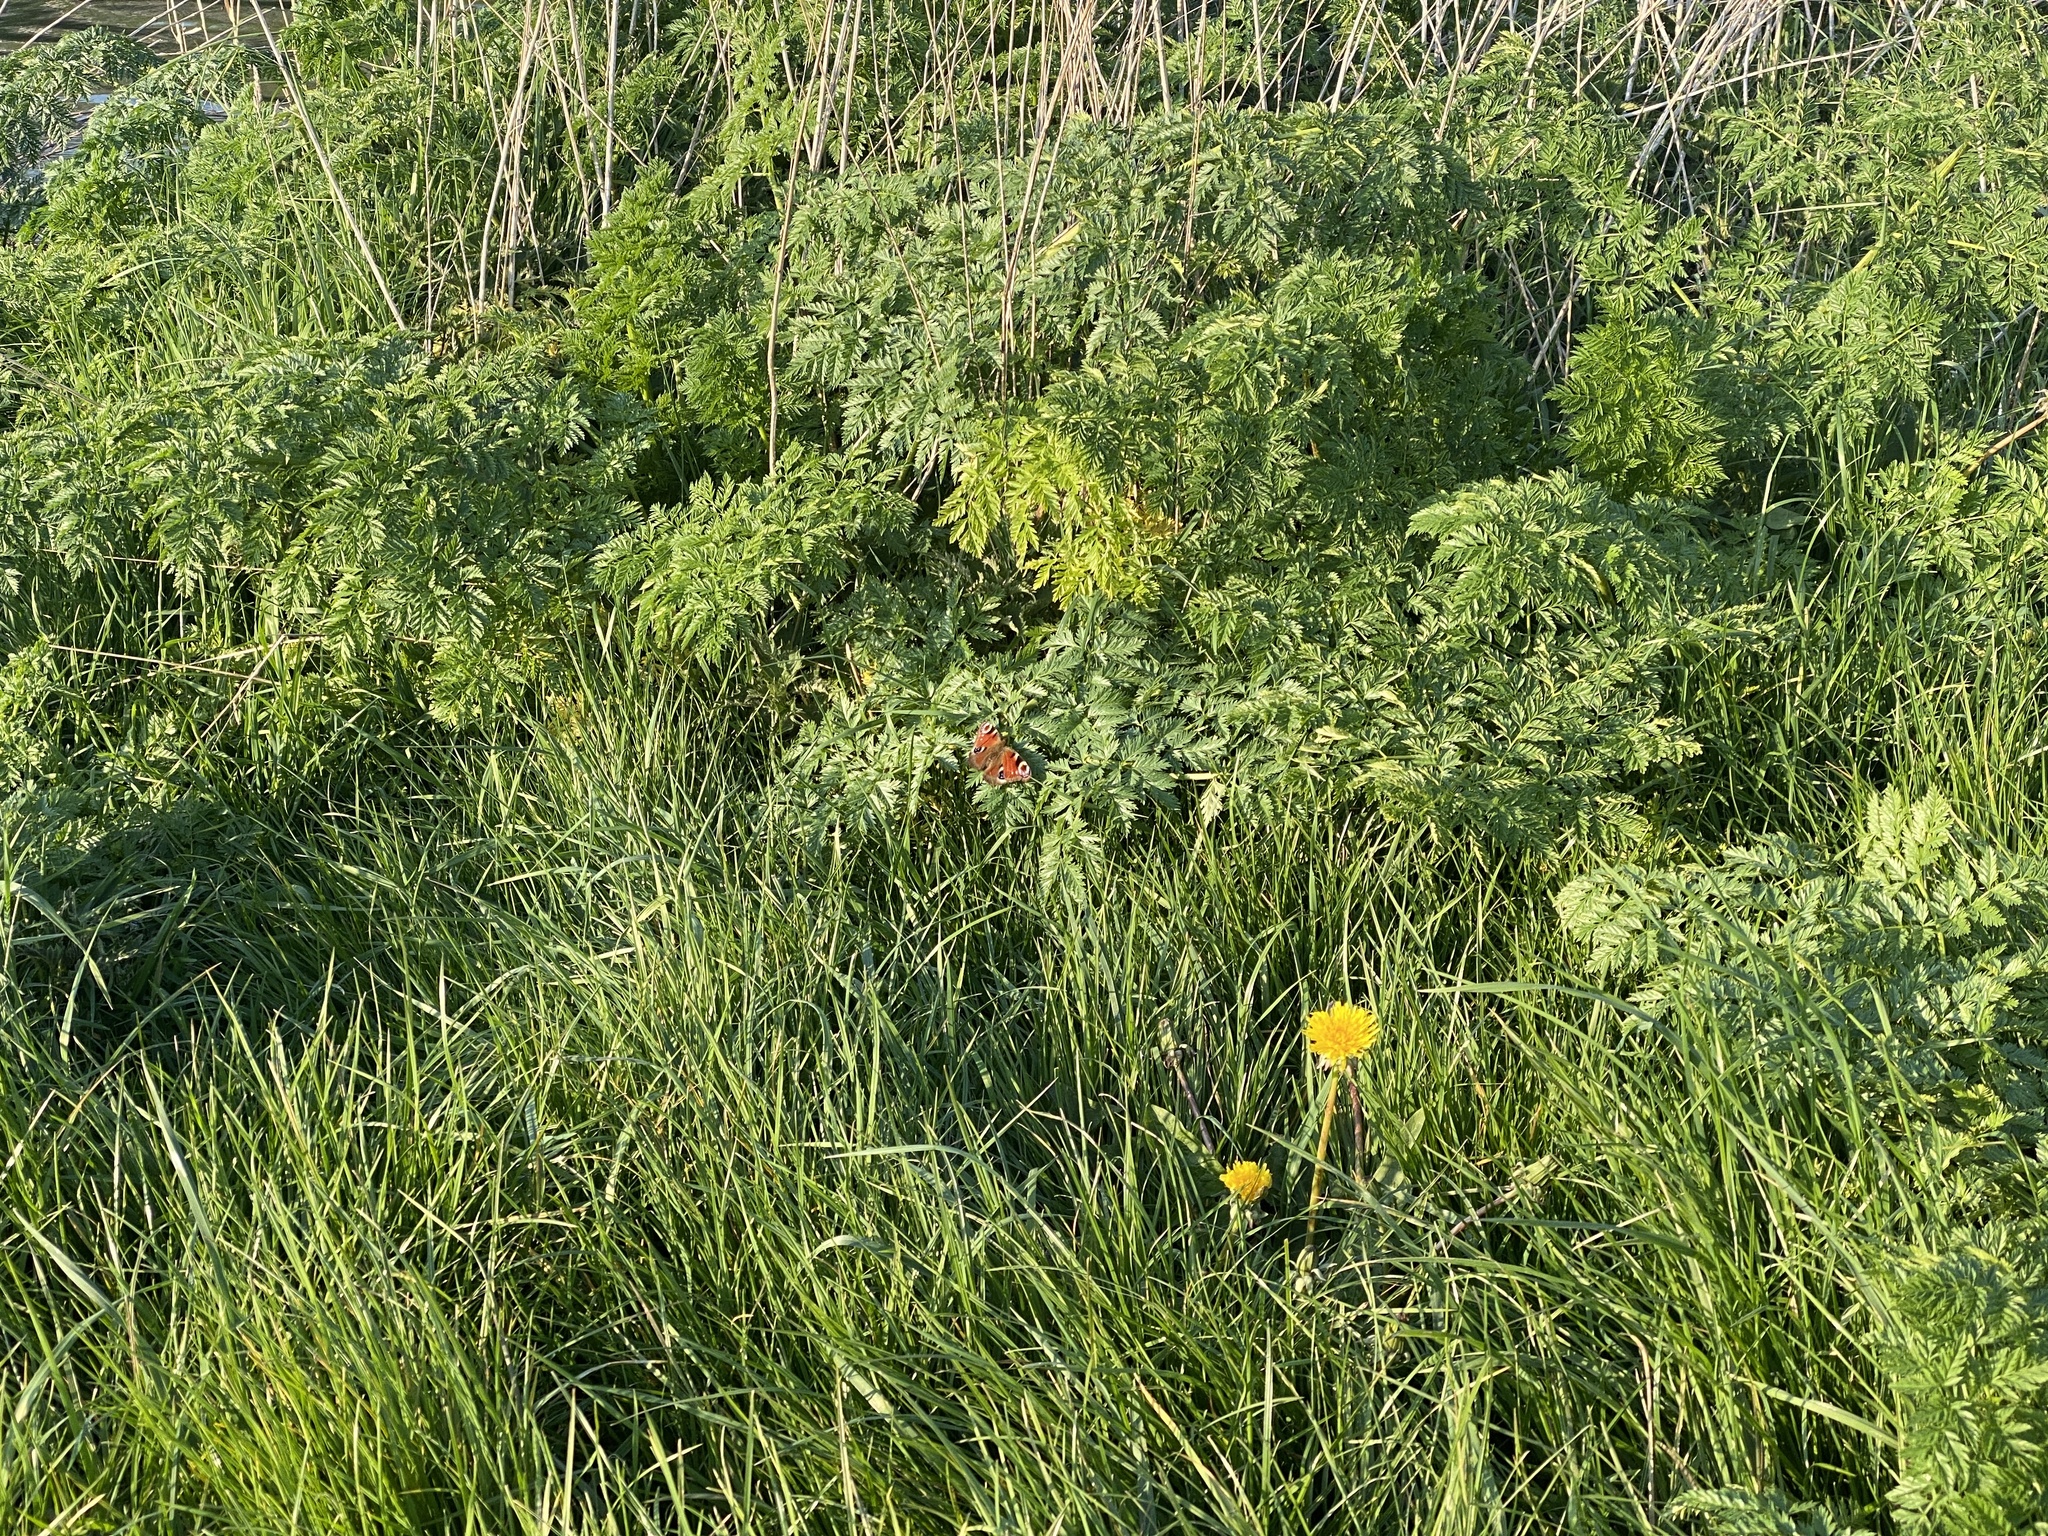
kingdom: Animalia
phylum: Arthropoda
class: Insecta
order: Lepidoptera
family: Nymphalidae
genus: Aglais
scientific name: Aglais io
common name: Peacock
